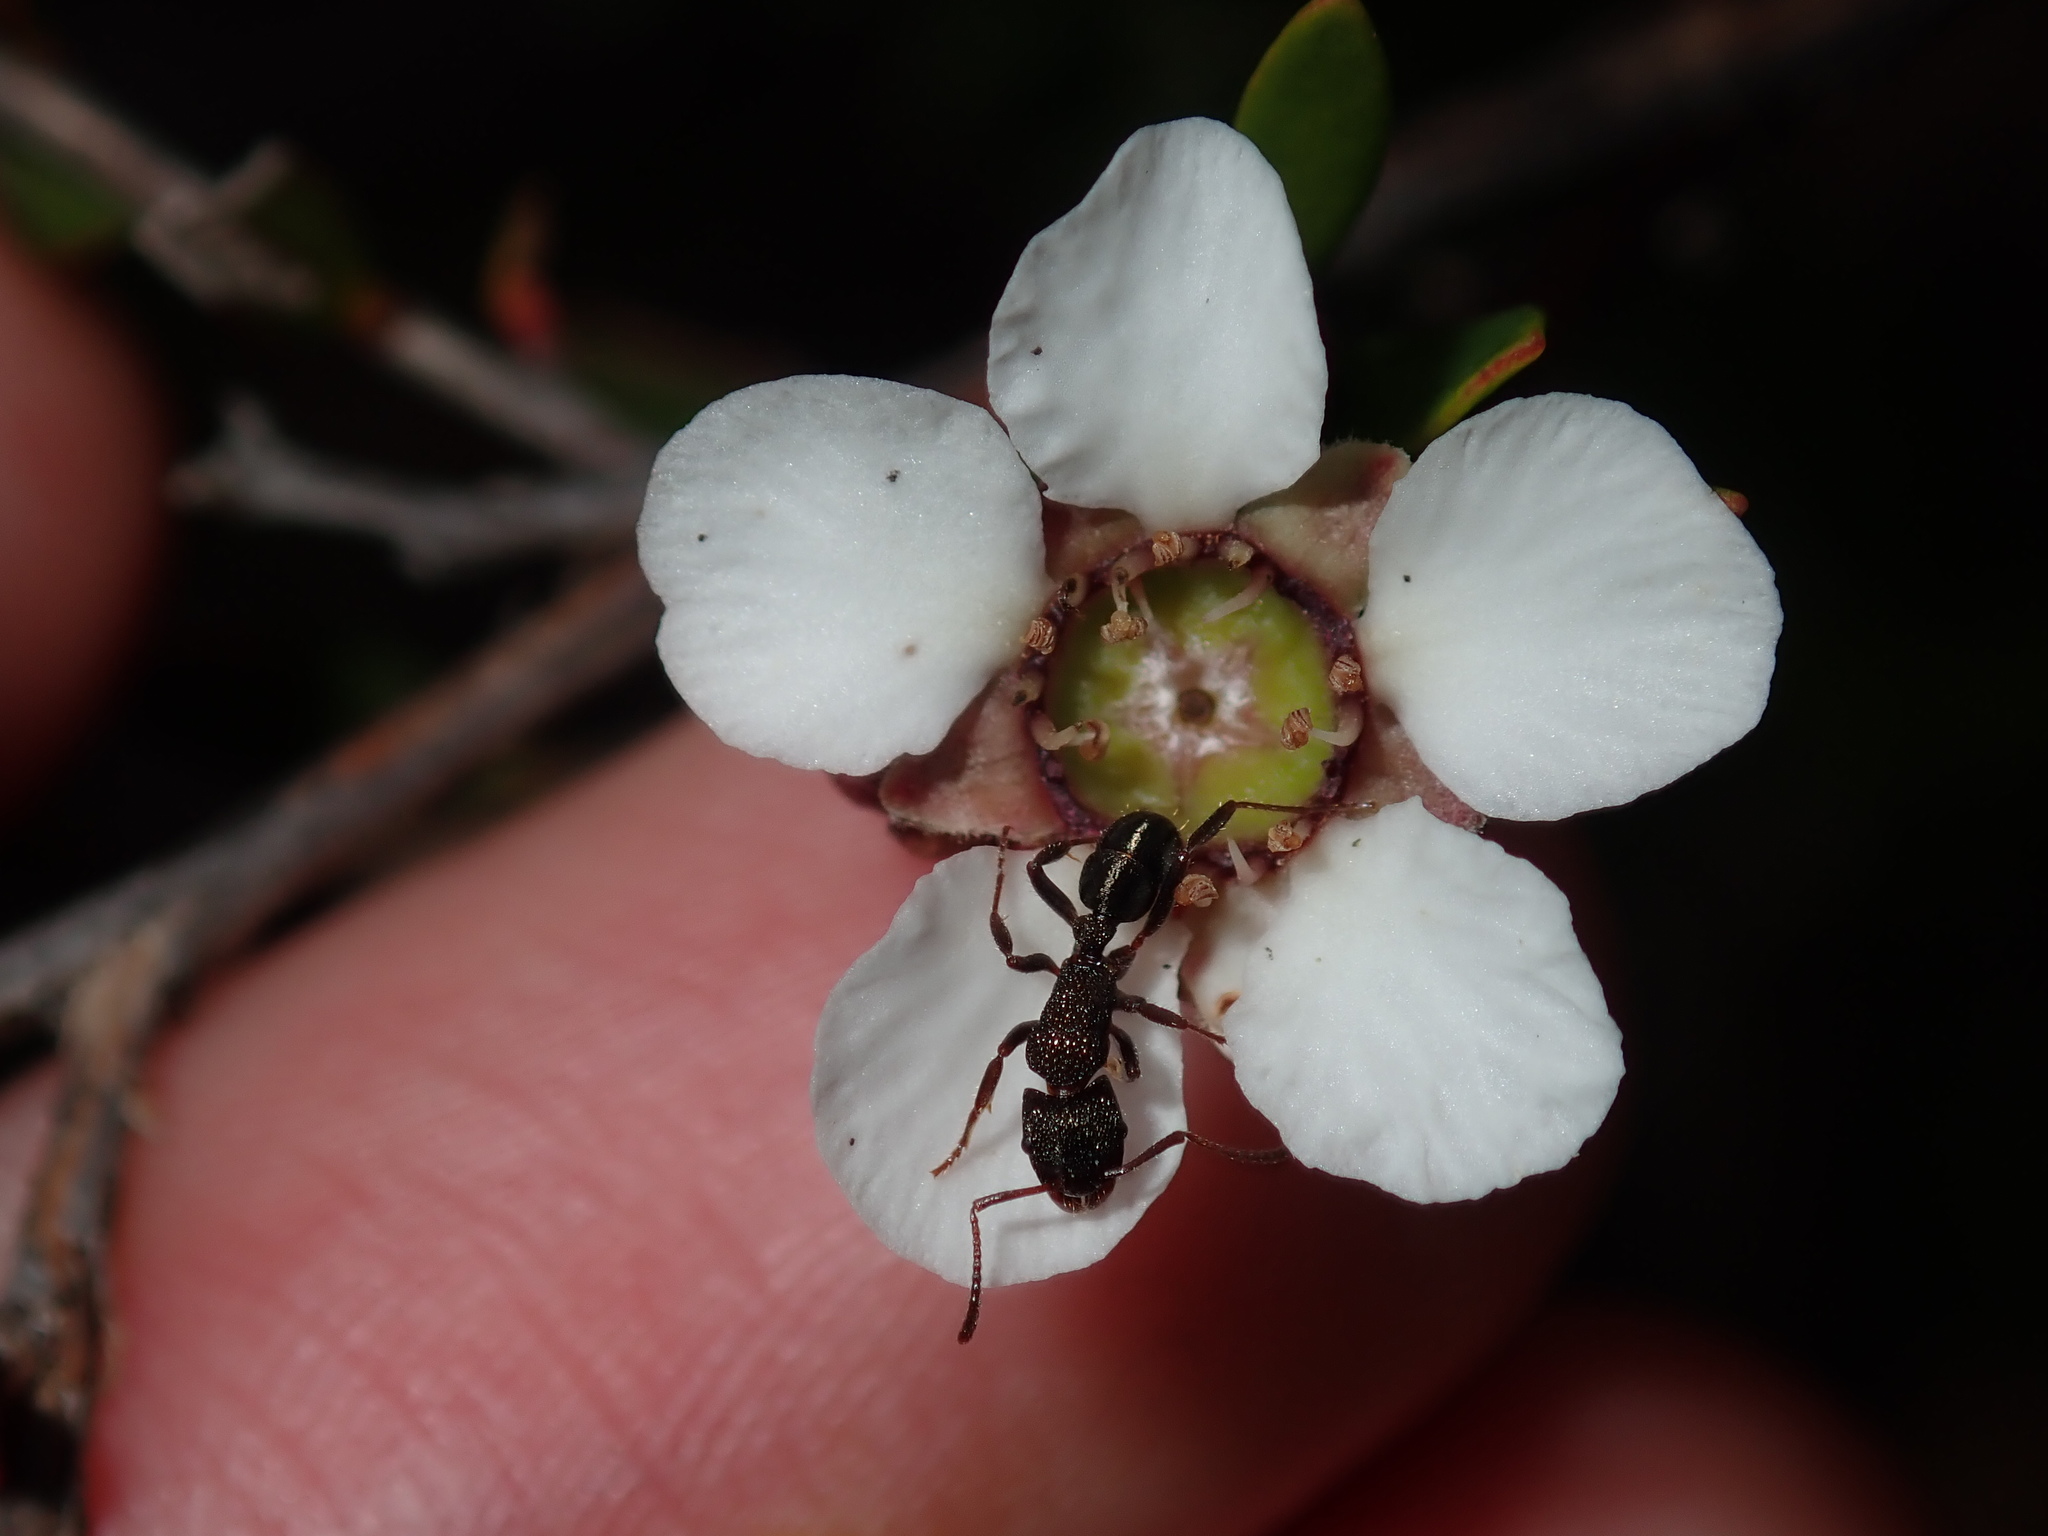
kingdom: Animalia
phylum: Arthropoda
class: Insecta
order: Hymenoptera
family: Formicidae
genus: Rhytidoponera
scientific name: Rhytidoponera metallica
